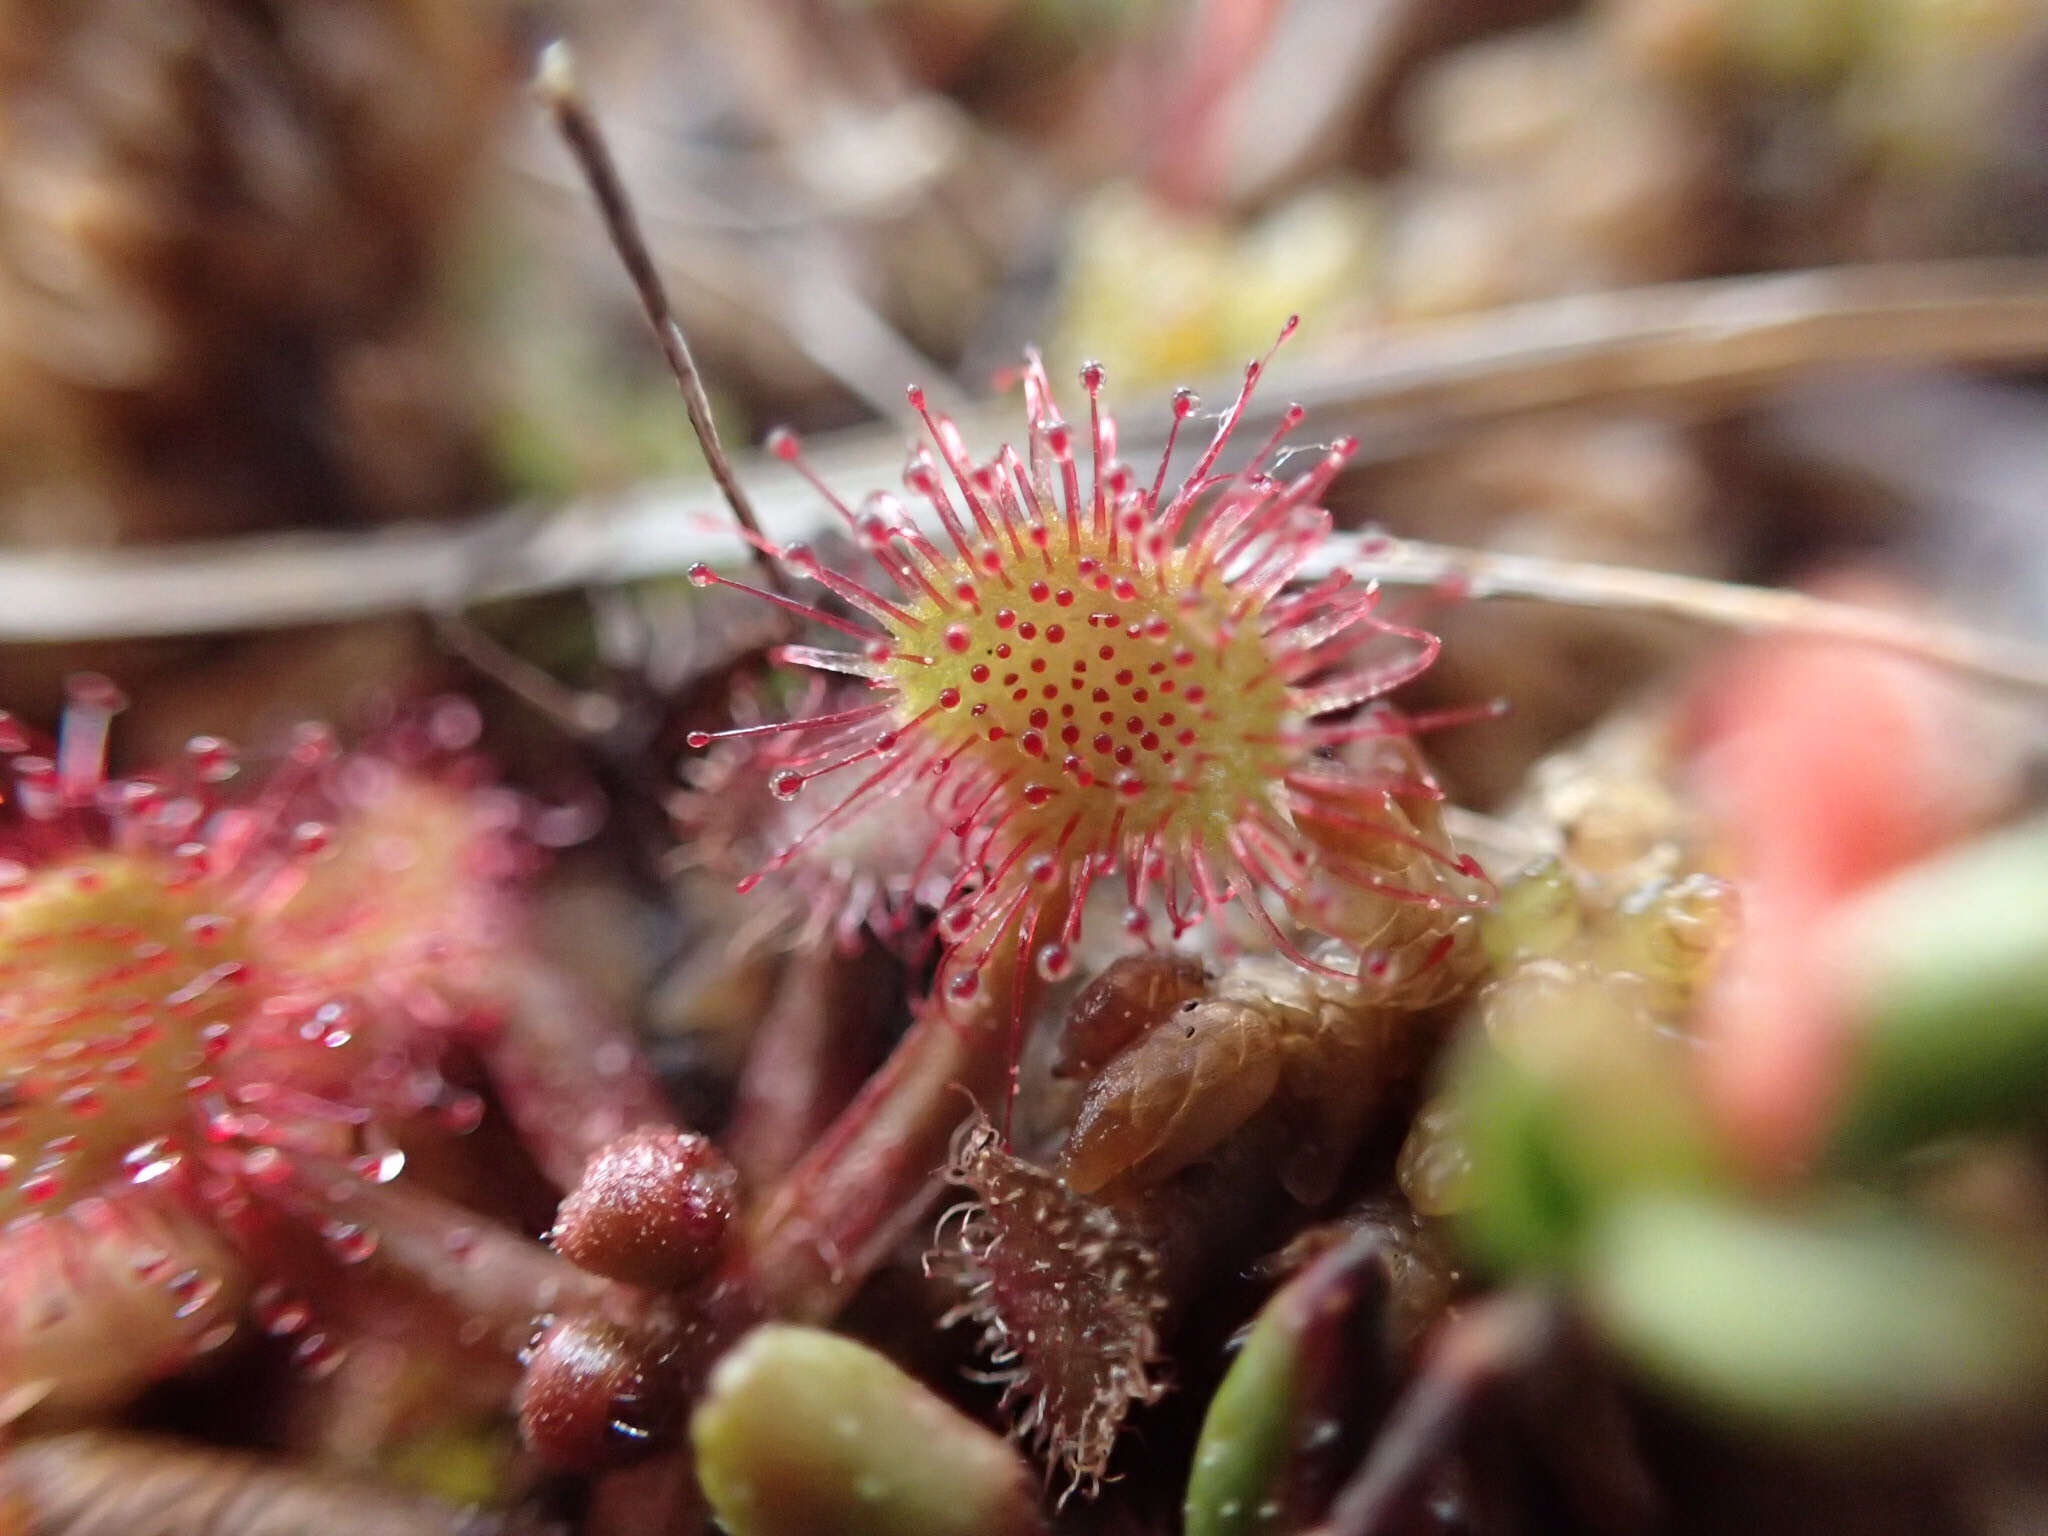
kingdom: Plantae
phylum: Tracheophyta
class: Magnoliopsida
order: Caryophyllales
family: Droseraceae
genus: Drosera
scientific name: Drosera rotundifolia
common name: Round-leaved sundew
